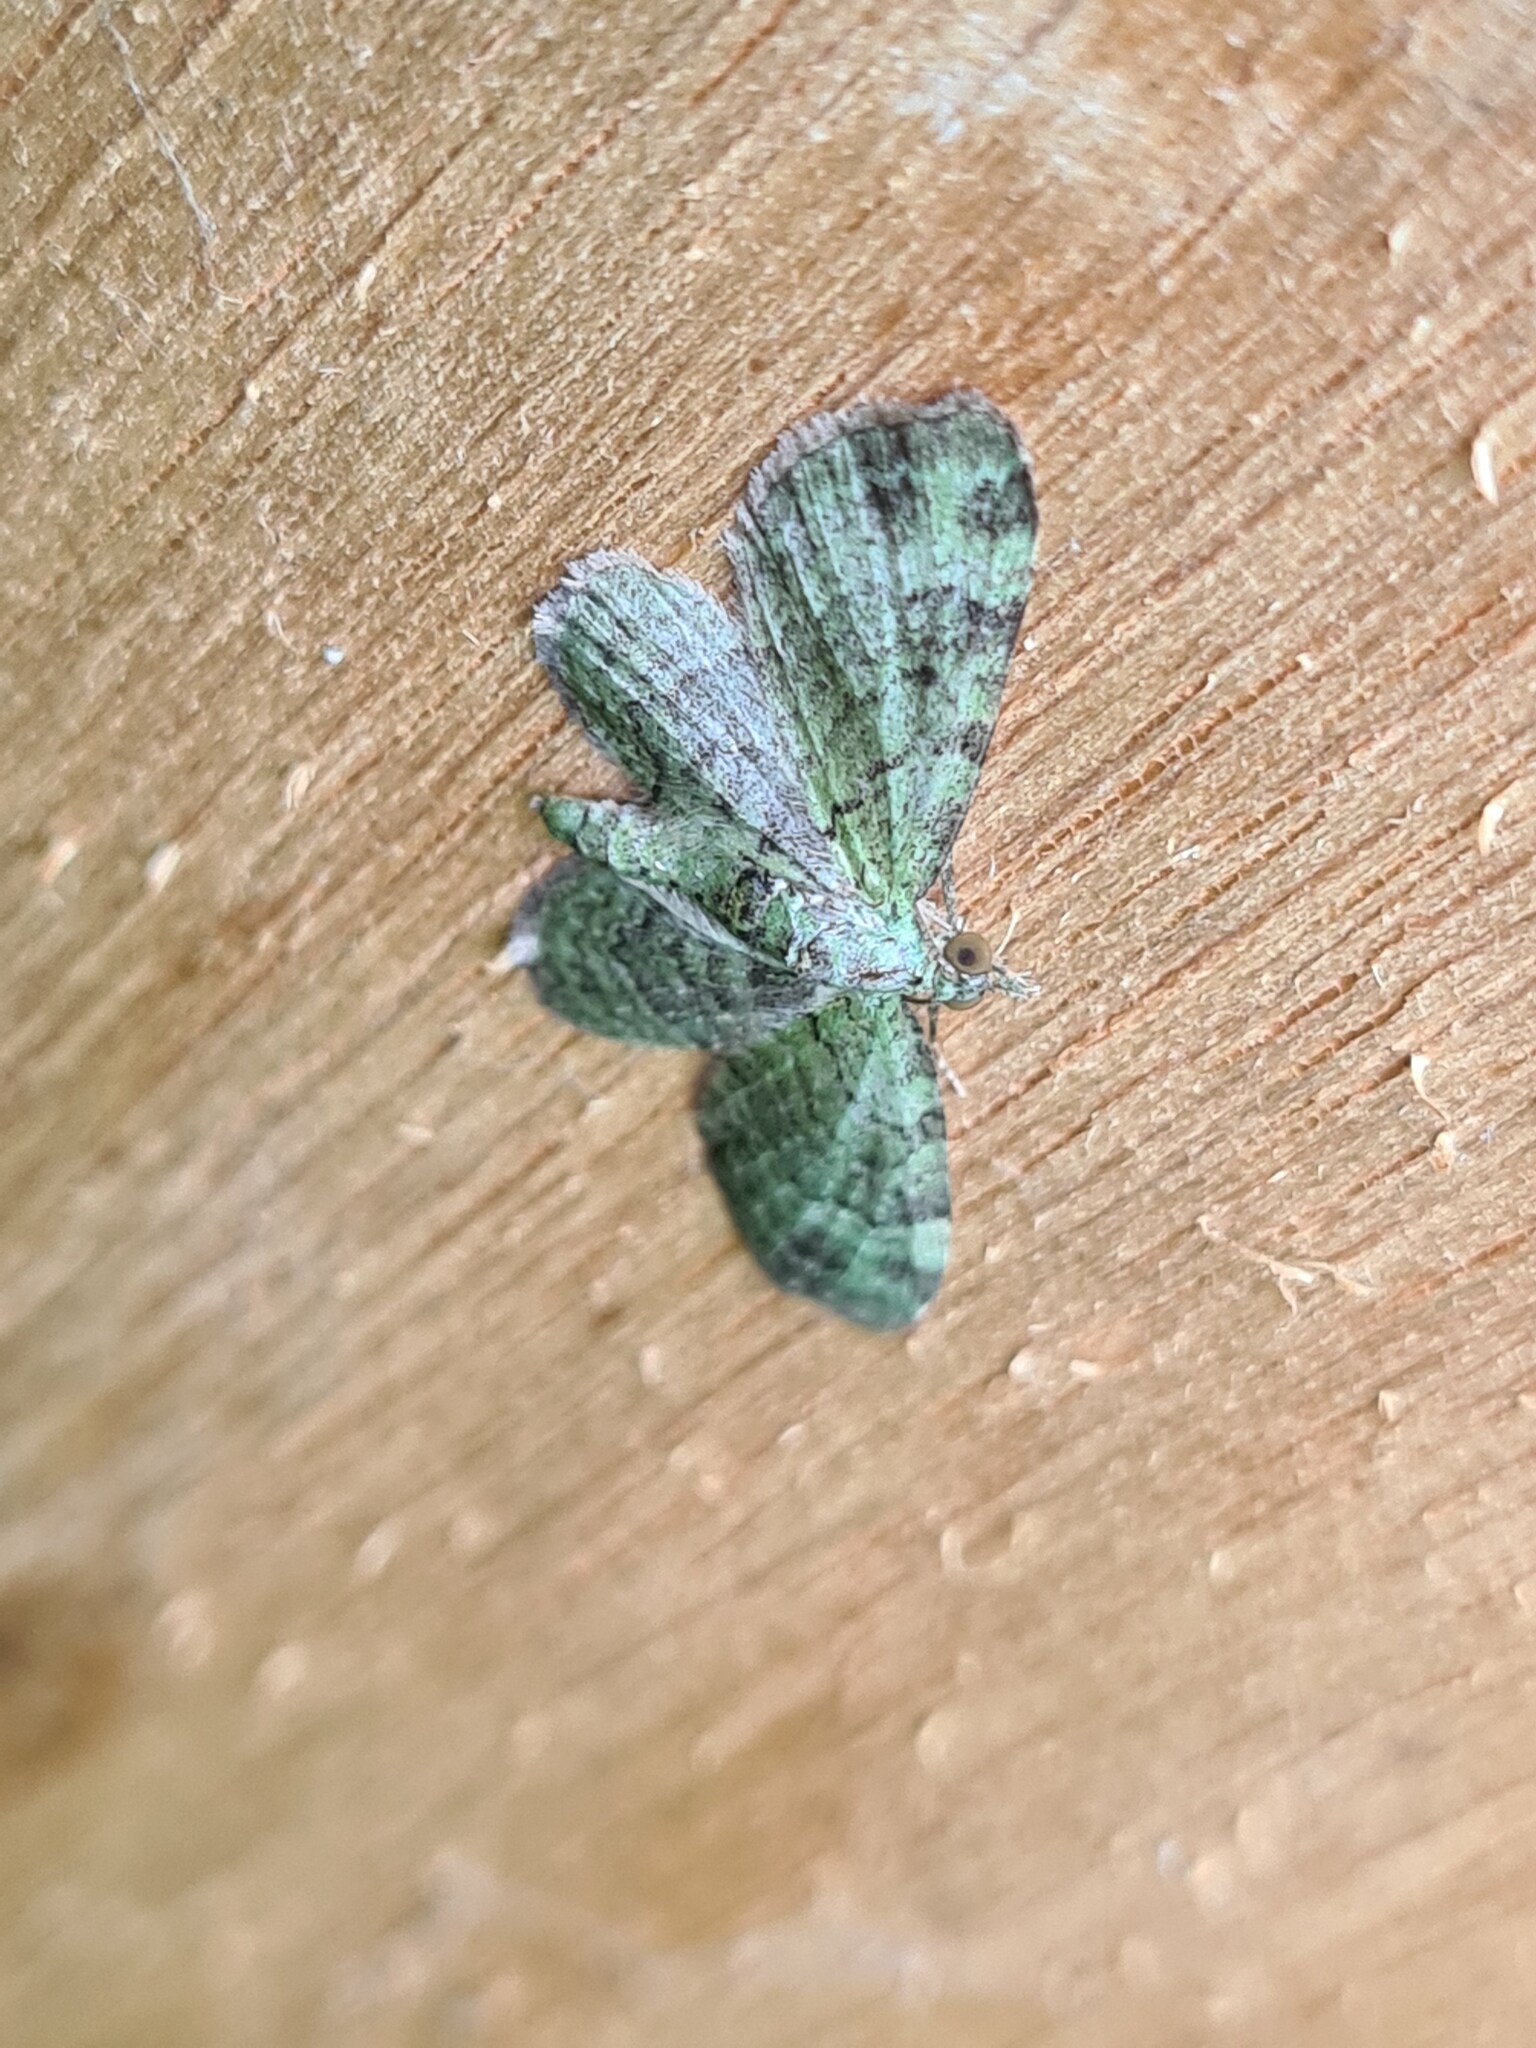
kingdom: Animalia
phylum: Arthropoda
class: Insecta
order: Lepidoptera
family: Geometridae
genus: Pasiphila
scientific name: Pasiphila rectangulata
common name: Green pug
